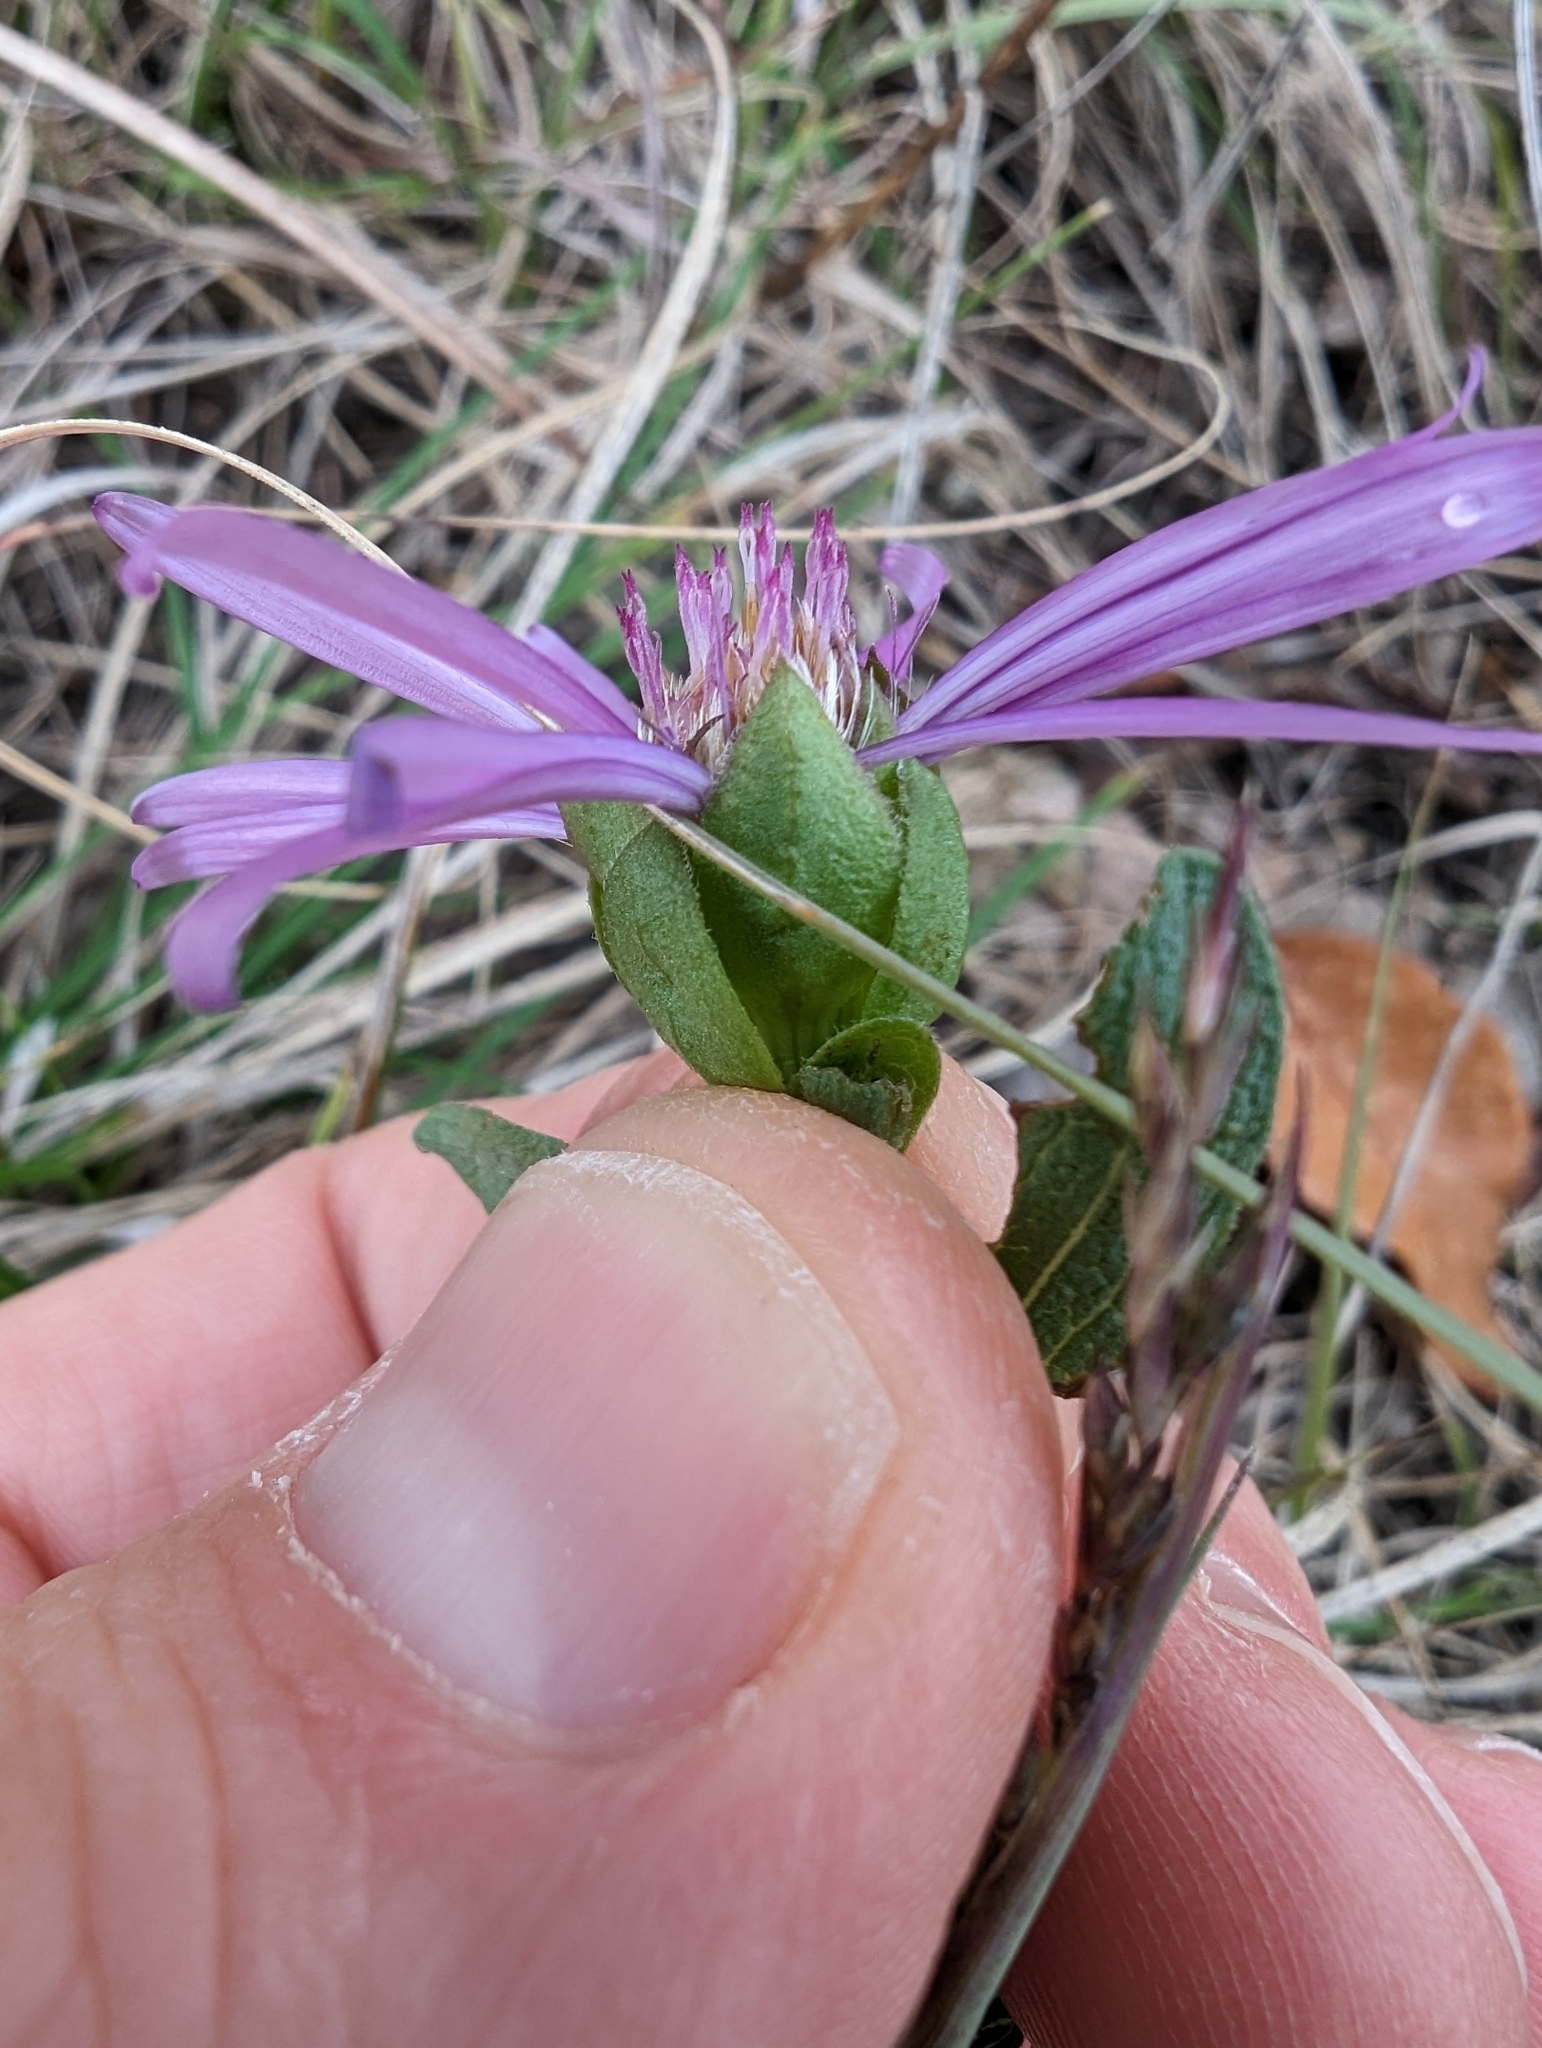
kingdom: Plantae
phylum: Tracheophyta
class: Magnoliopsida
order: Asterales
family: Asteraceae
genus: Symphyotrichum
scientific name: Symphyotrichum pratense
